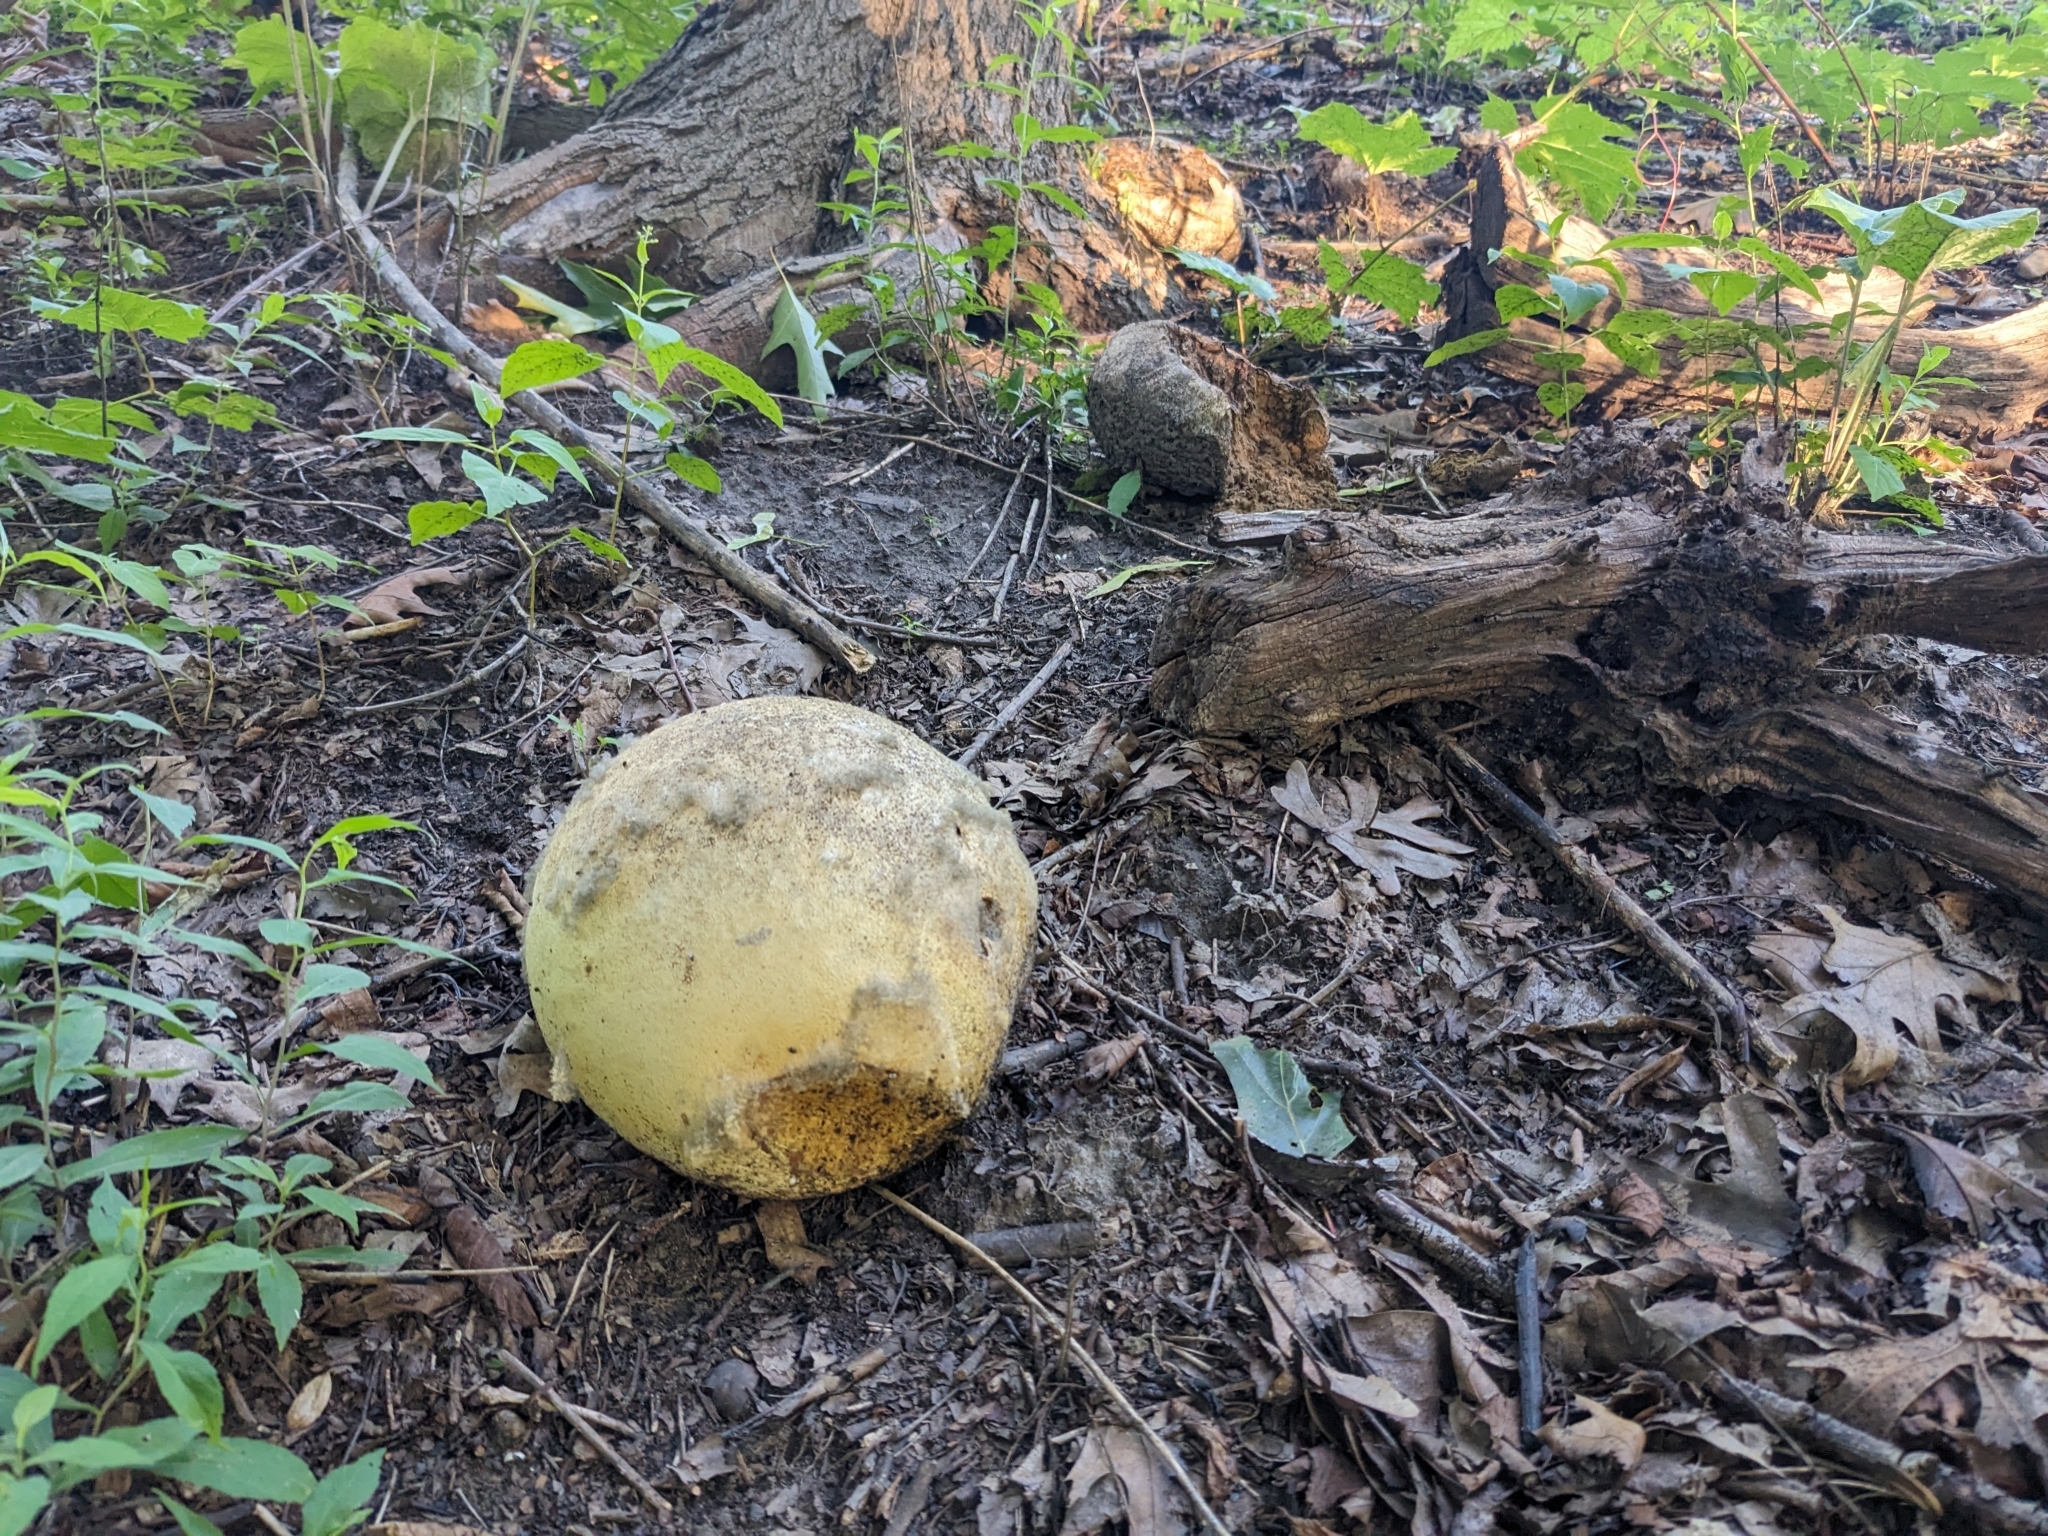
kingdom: Fungi
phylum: Basidiomycota
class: Agaricomycetes
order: Agaricales
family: Lycoperdaceae
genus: Calvatia
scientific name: Calvatia gigantea
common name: Giant puffball
